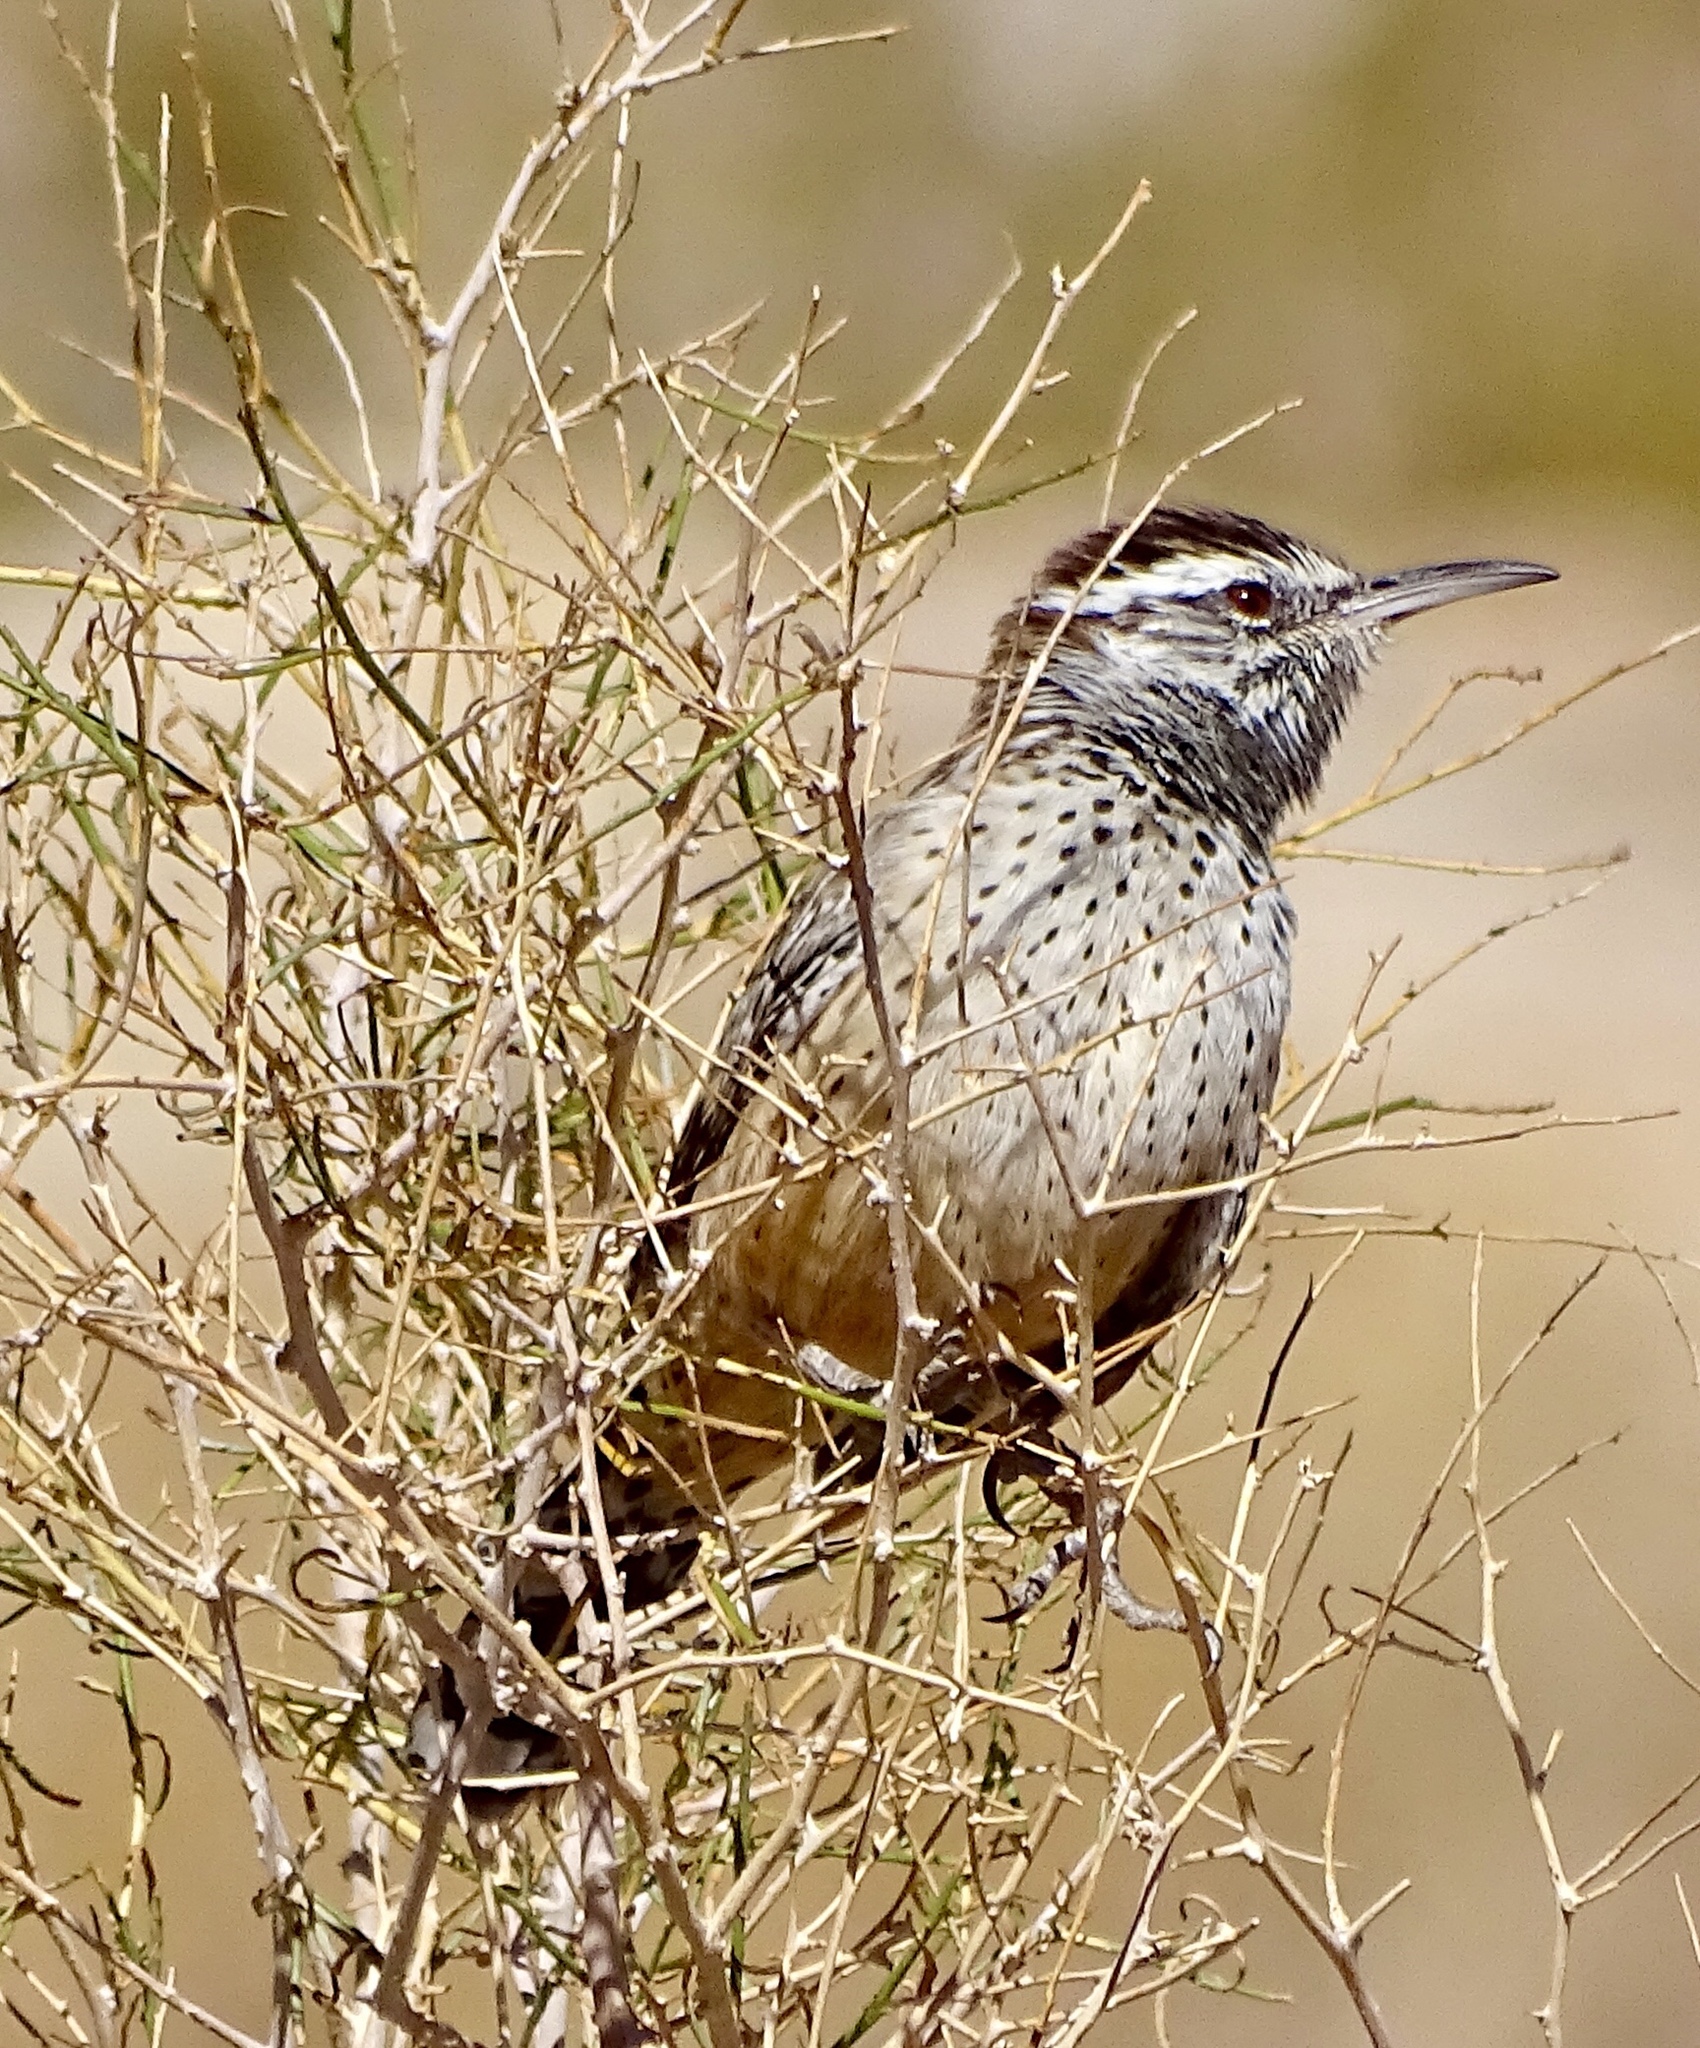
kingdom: Animalia
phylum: Chordata
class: Aves
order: Passeriformes
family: Troglodytidae
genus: Campylorhynchus
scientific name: Campylorhynchus brunneicapillus
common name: Cactus wren
